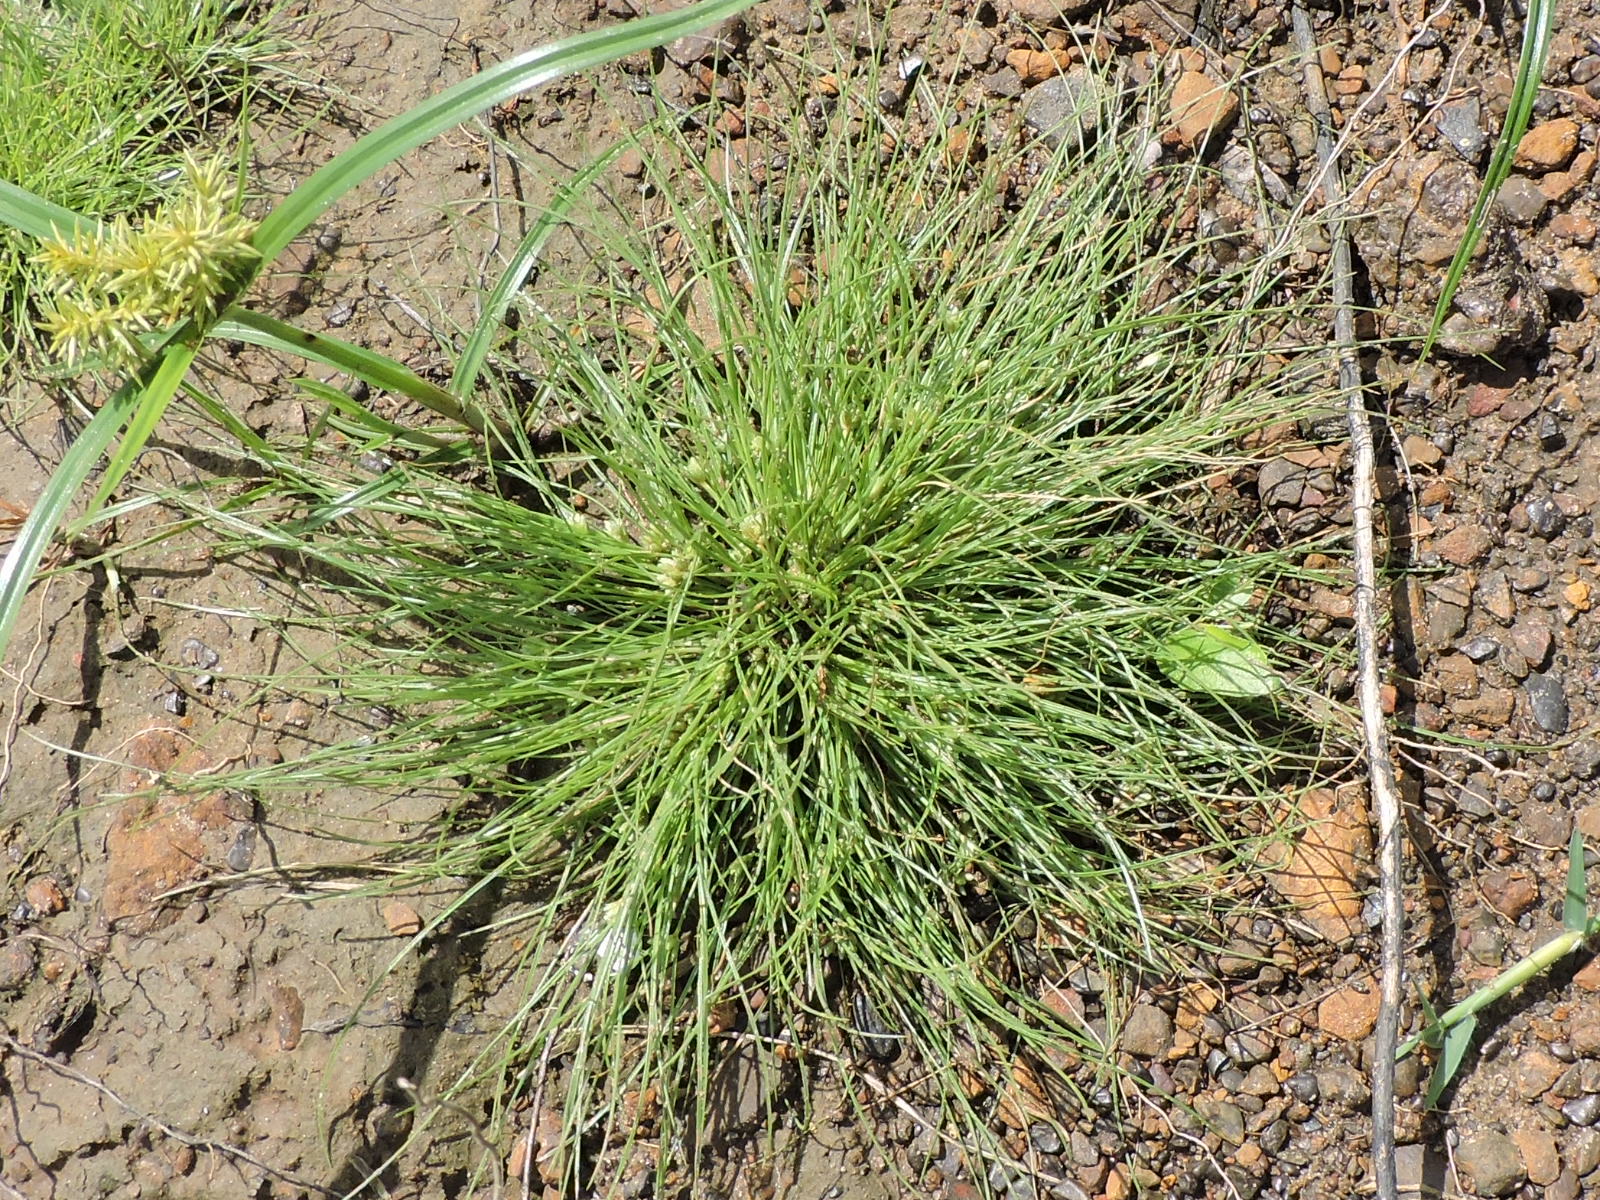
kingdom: Plantae
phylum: Tracheophyta
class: Liliopsida
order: Poales
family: Cyperaceae
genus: Fimbristylis
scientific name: Fimbristylis vahlii
